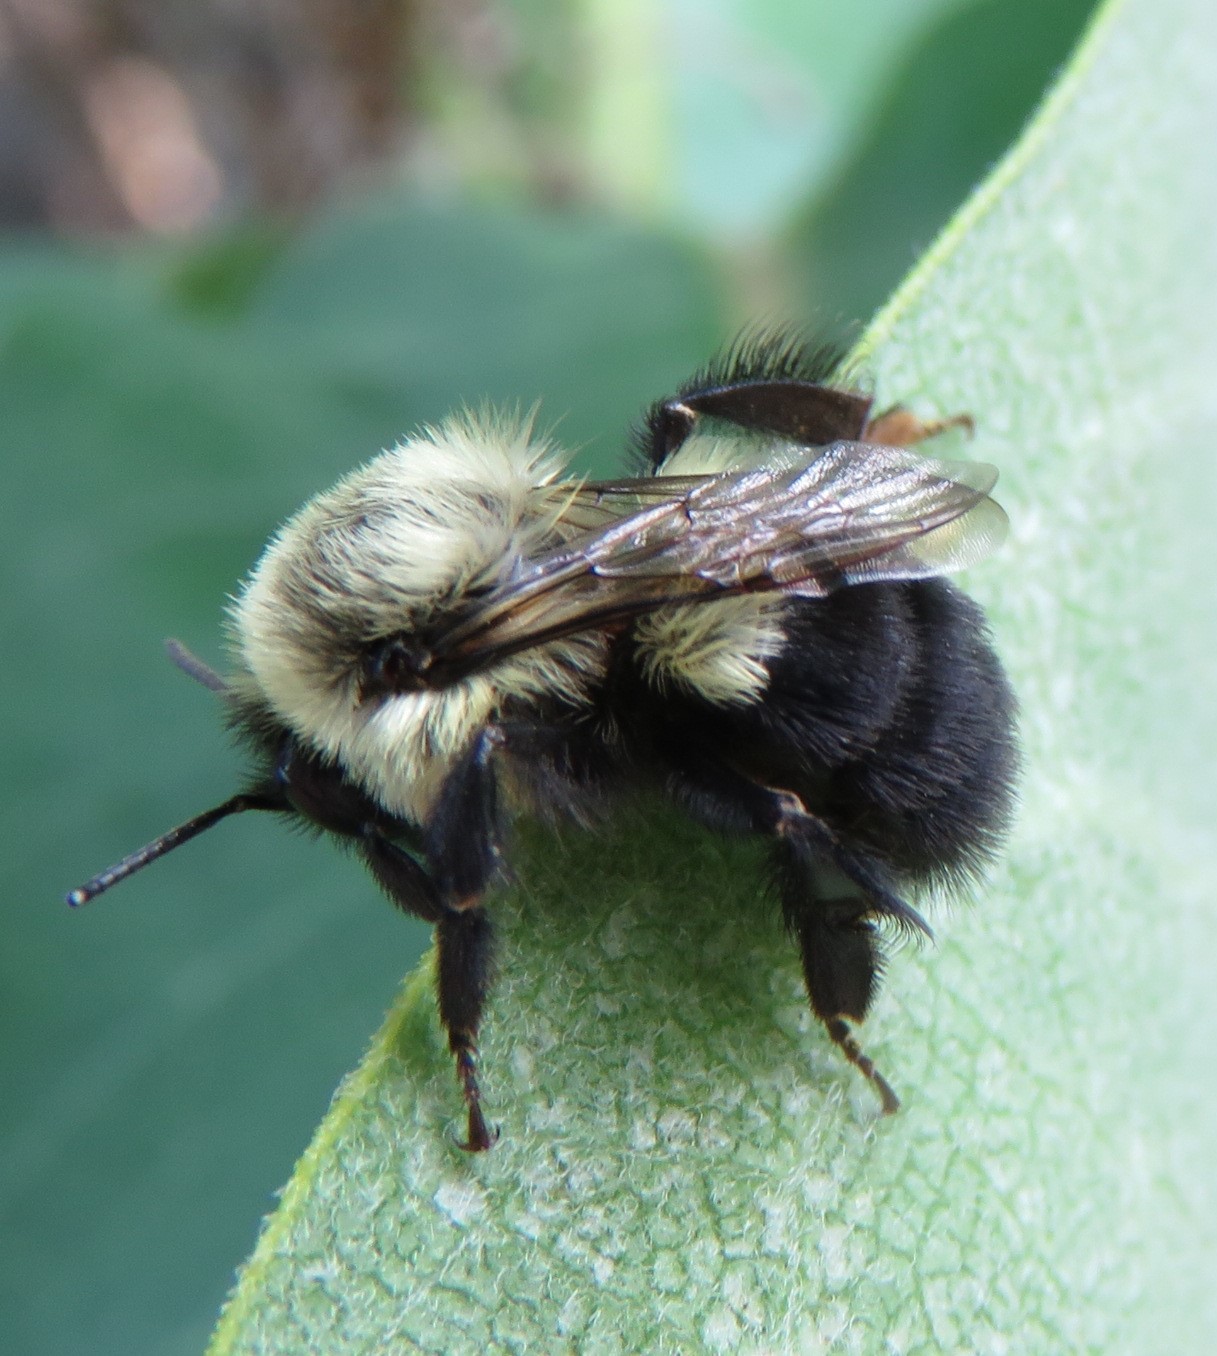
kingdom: Animalia
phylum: Arthropoda
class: Insecta
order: Hymenoptera
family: Apidae
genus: Bombus
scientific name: Bombus impatiens
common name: Common eastern bumble bee
